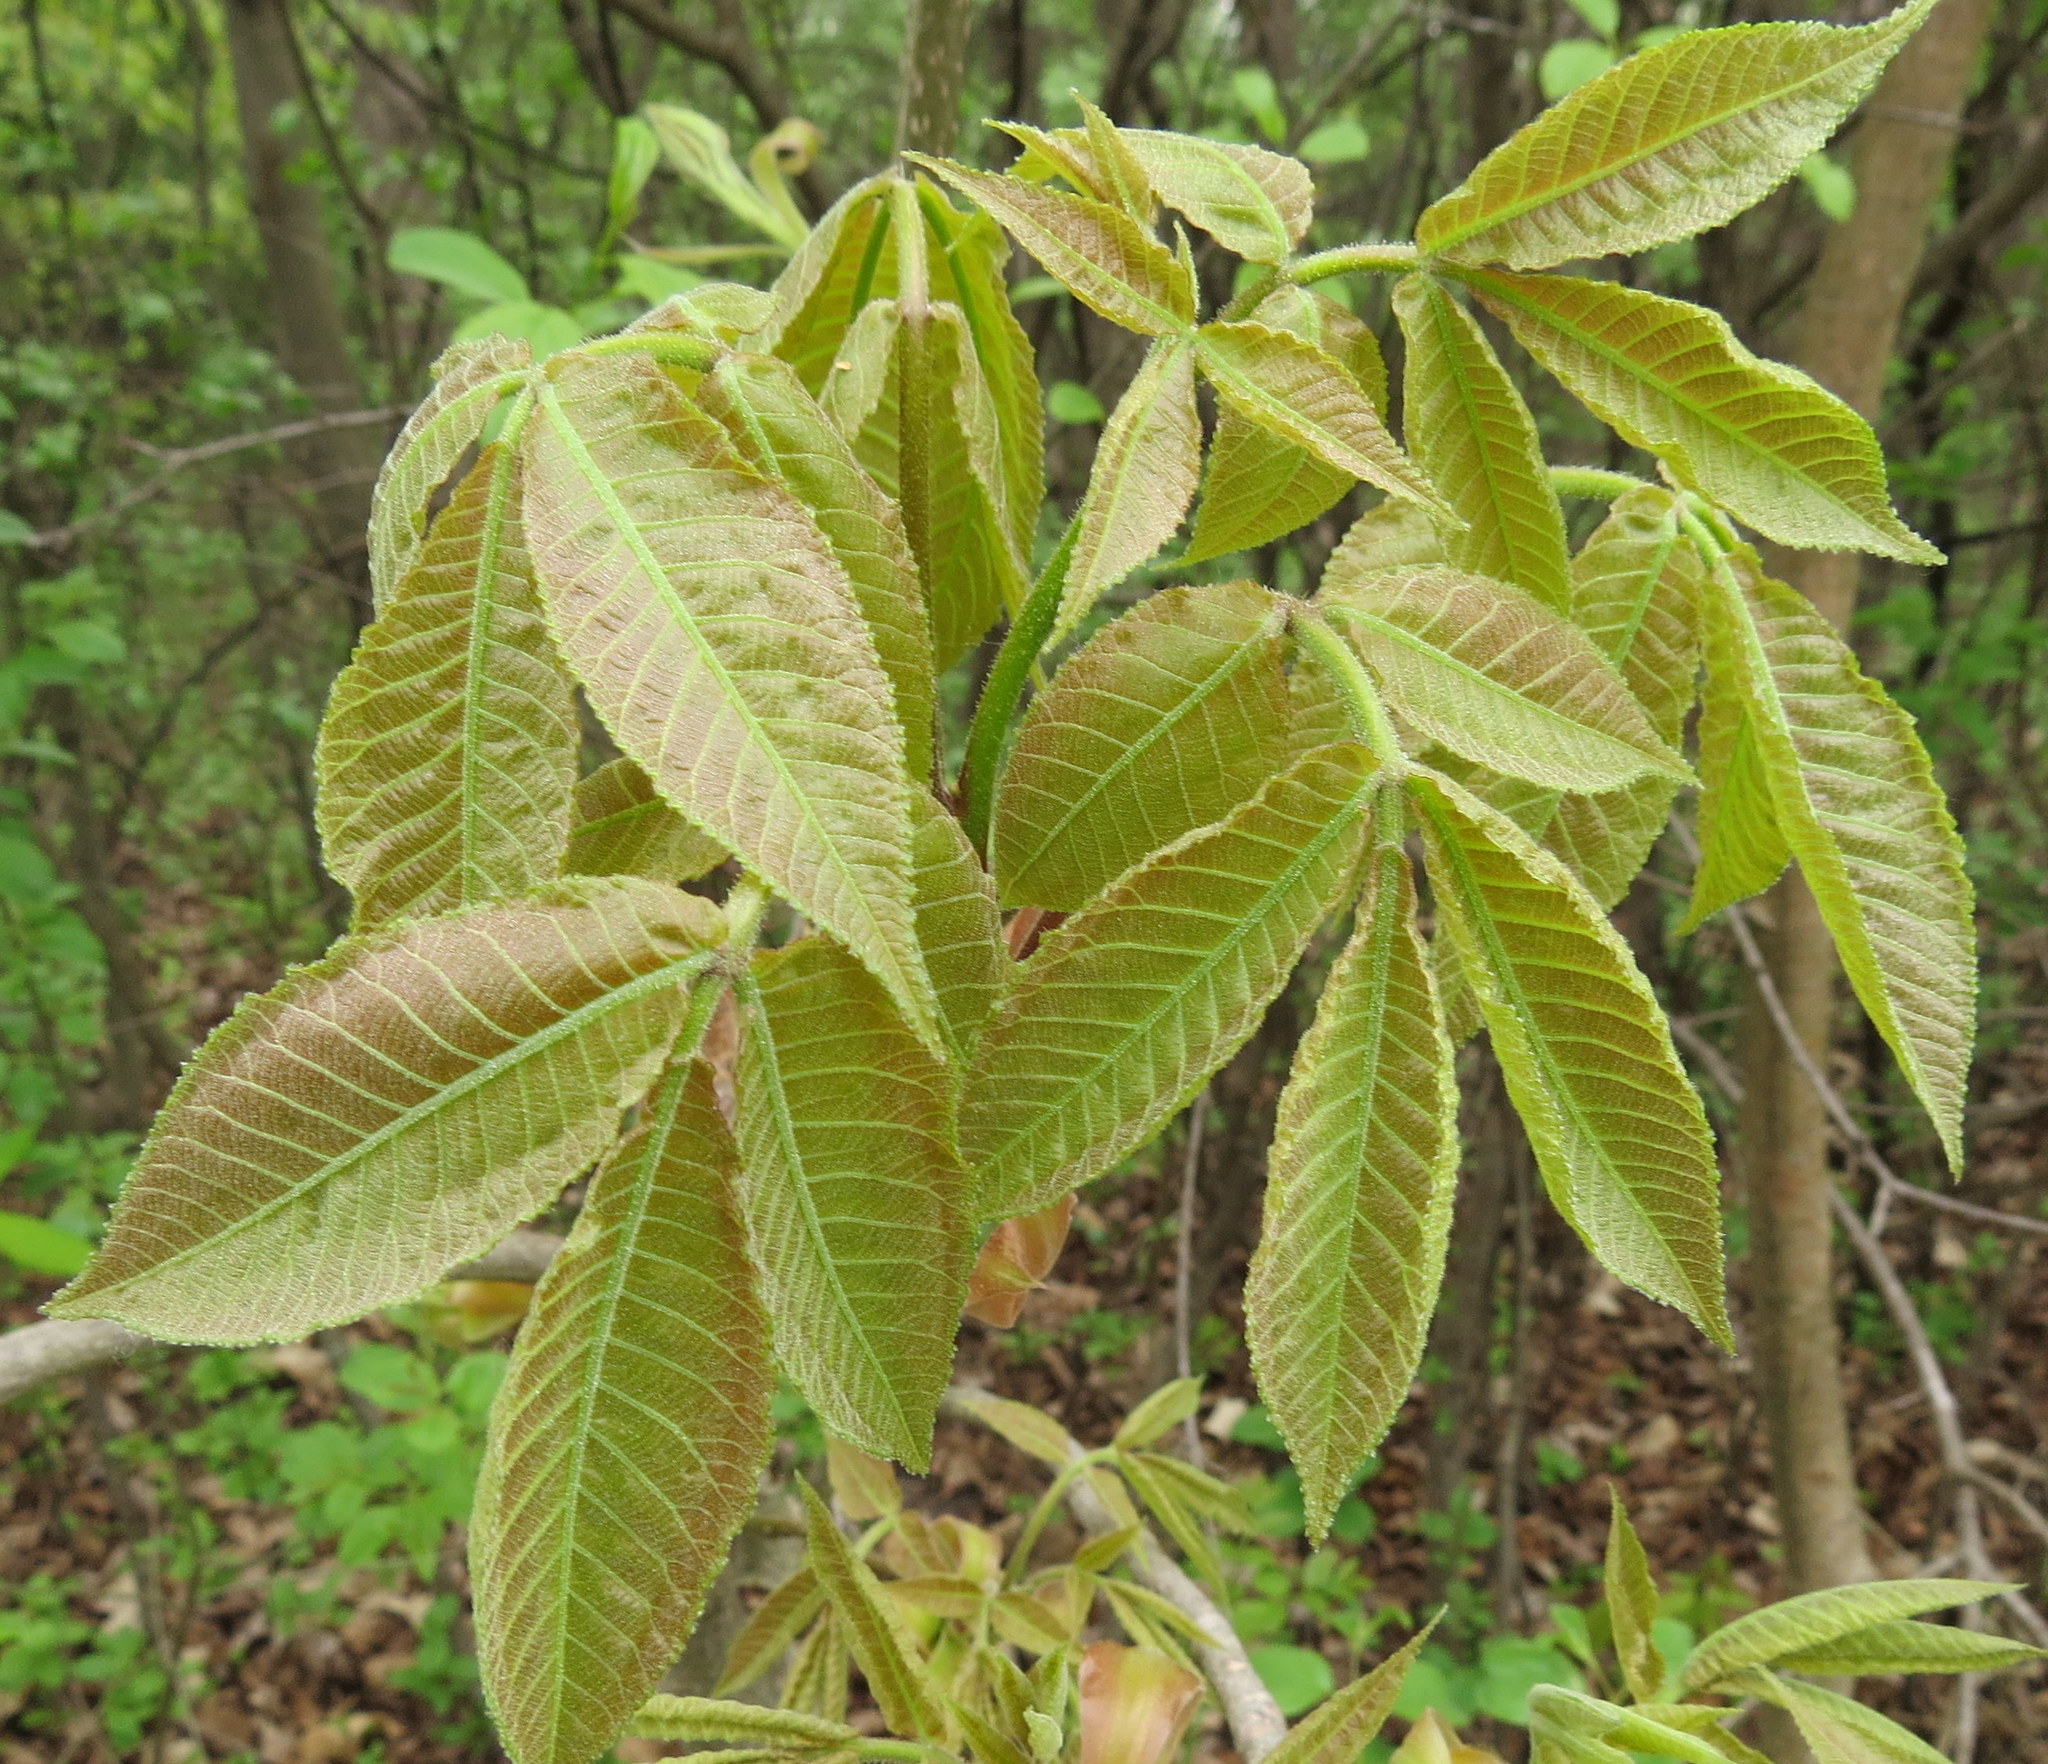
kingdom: Plantae
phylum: Tracheophyta
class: Magnoliopsida
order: Fagales
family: Juglandaceae
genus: Carya
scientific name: Carya ovata
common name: Shagbark hickory
